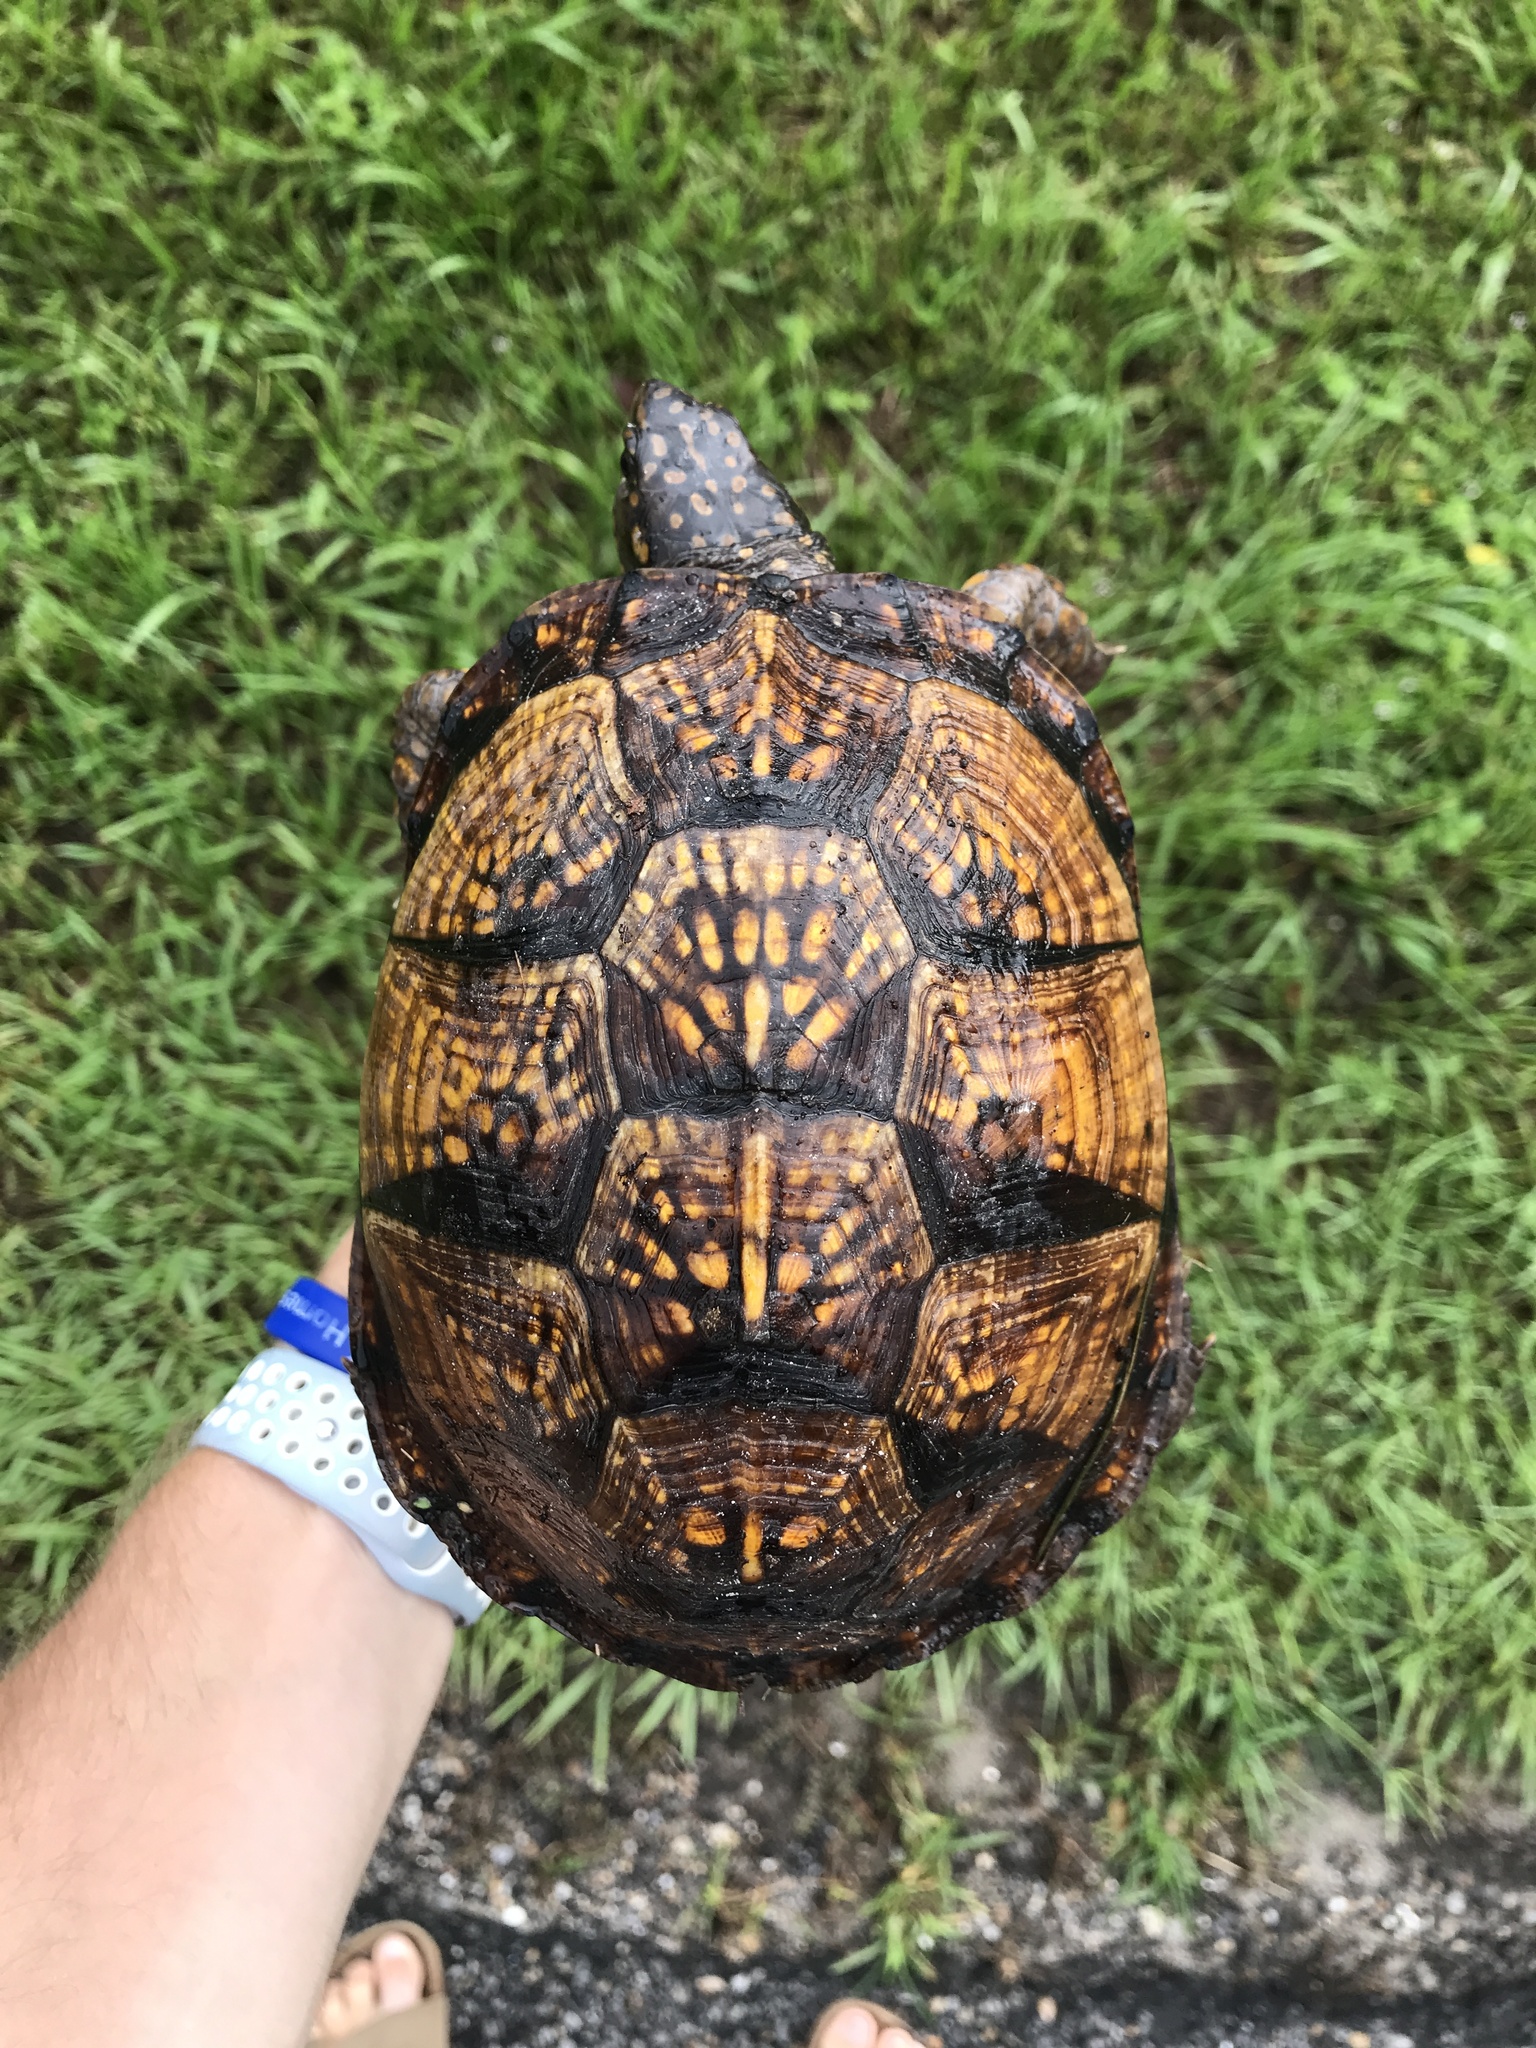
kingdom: Animalia
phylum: Chordata
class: Testudines
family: Emydidae
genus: Terrapene
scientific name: Terrapene carolina
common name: Common box turtle
